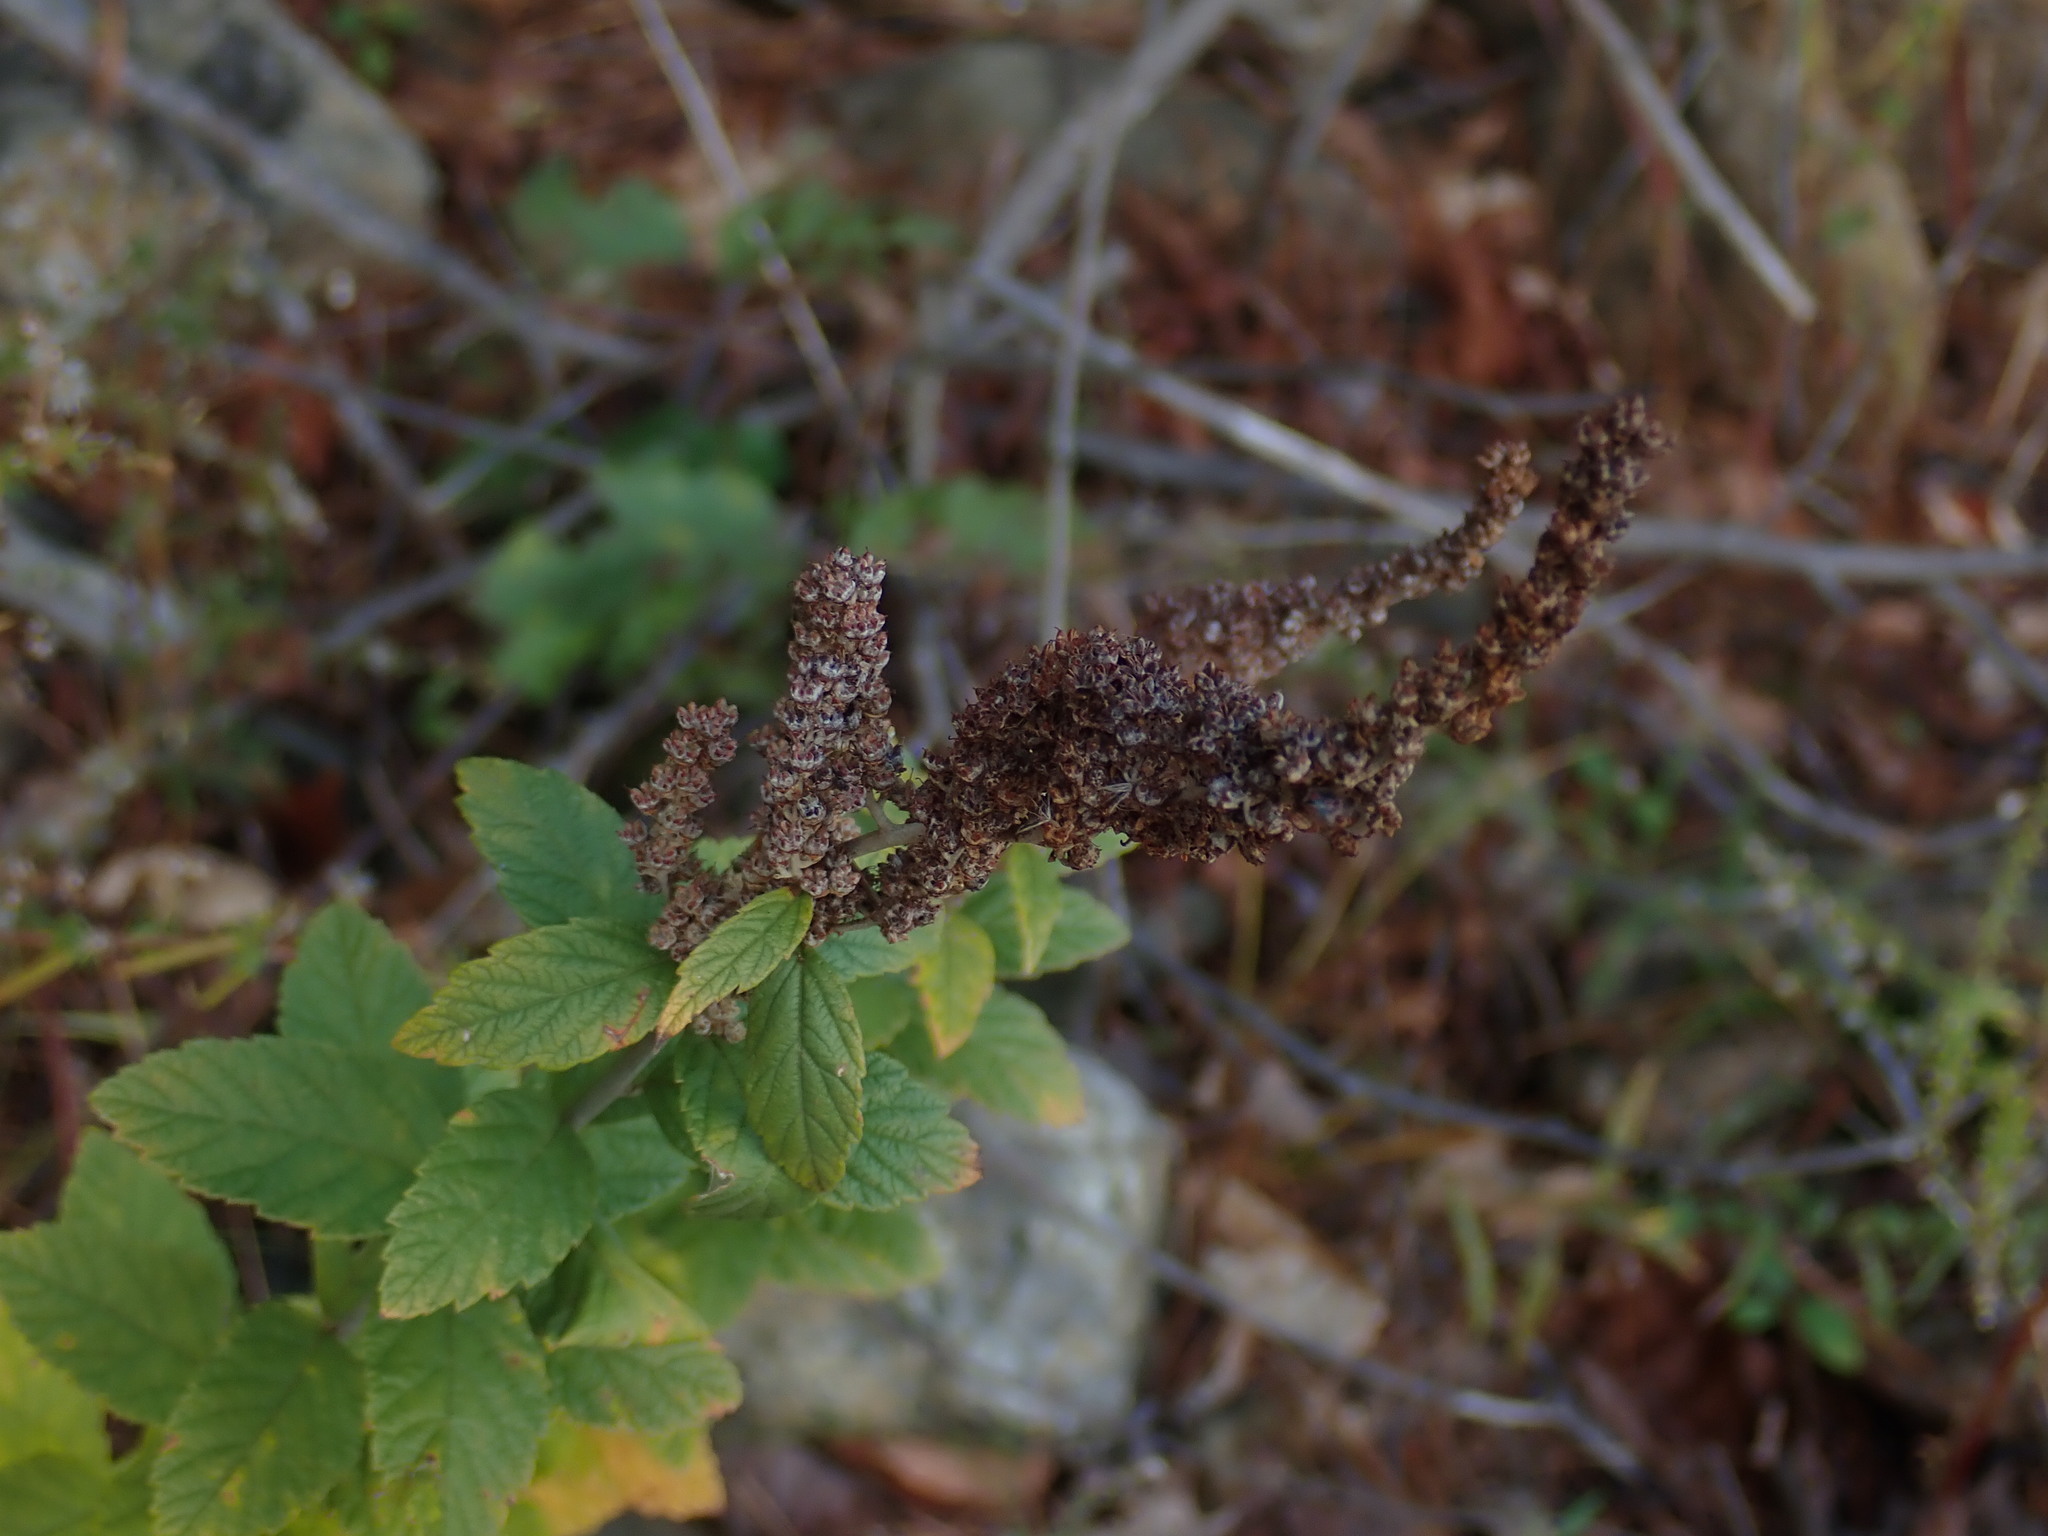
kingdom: Plantae
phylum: Tracheophyta
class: Magnoliopsida
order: Rosales
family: Rosaceae
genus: Spiraea
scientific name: Spiraea tomentosa
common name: Hardhack
